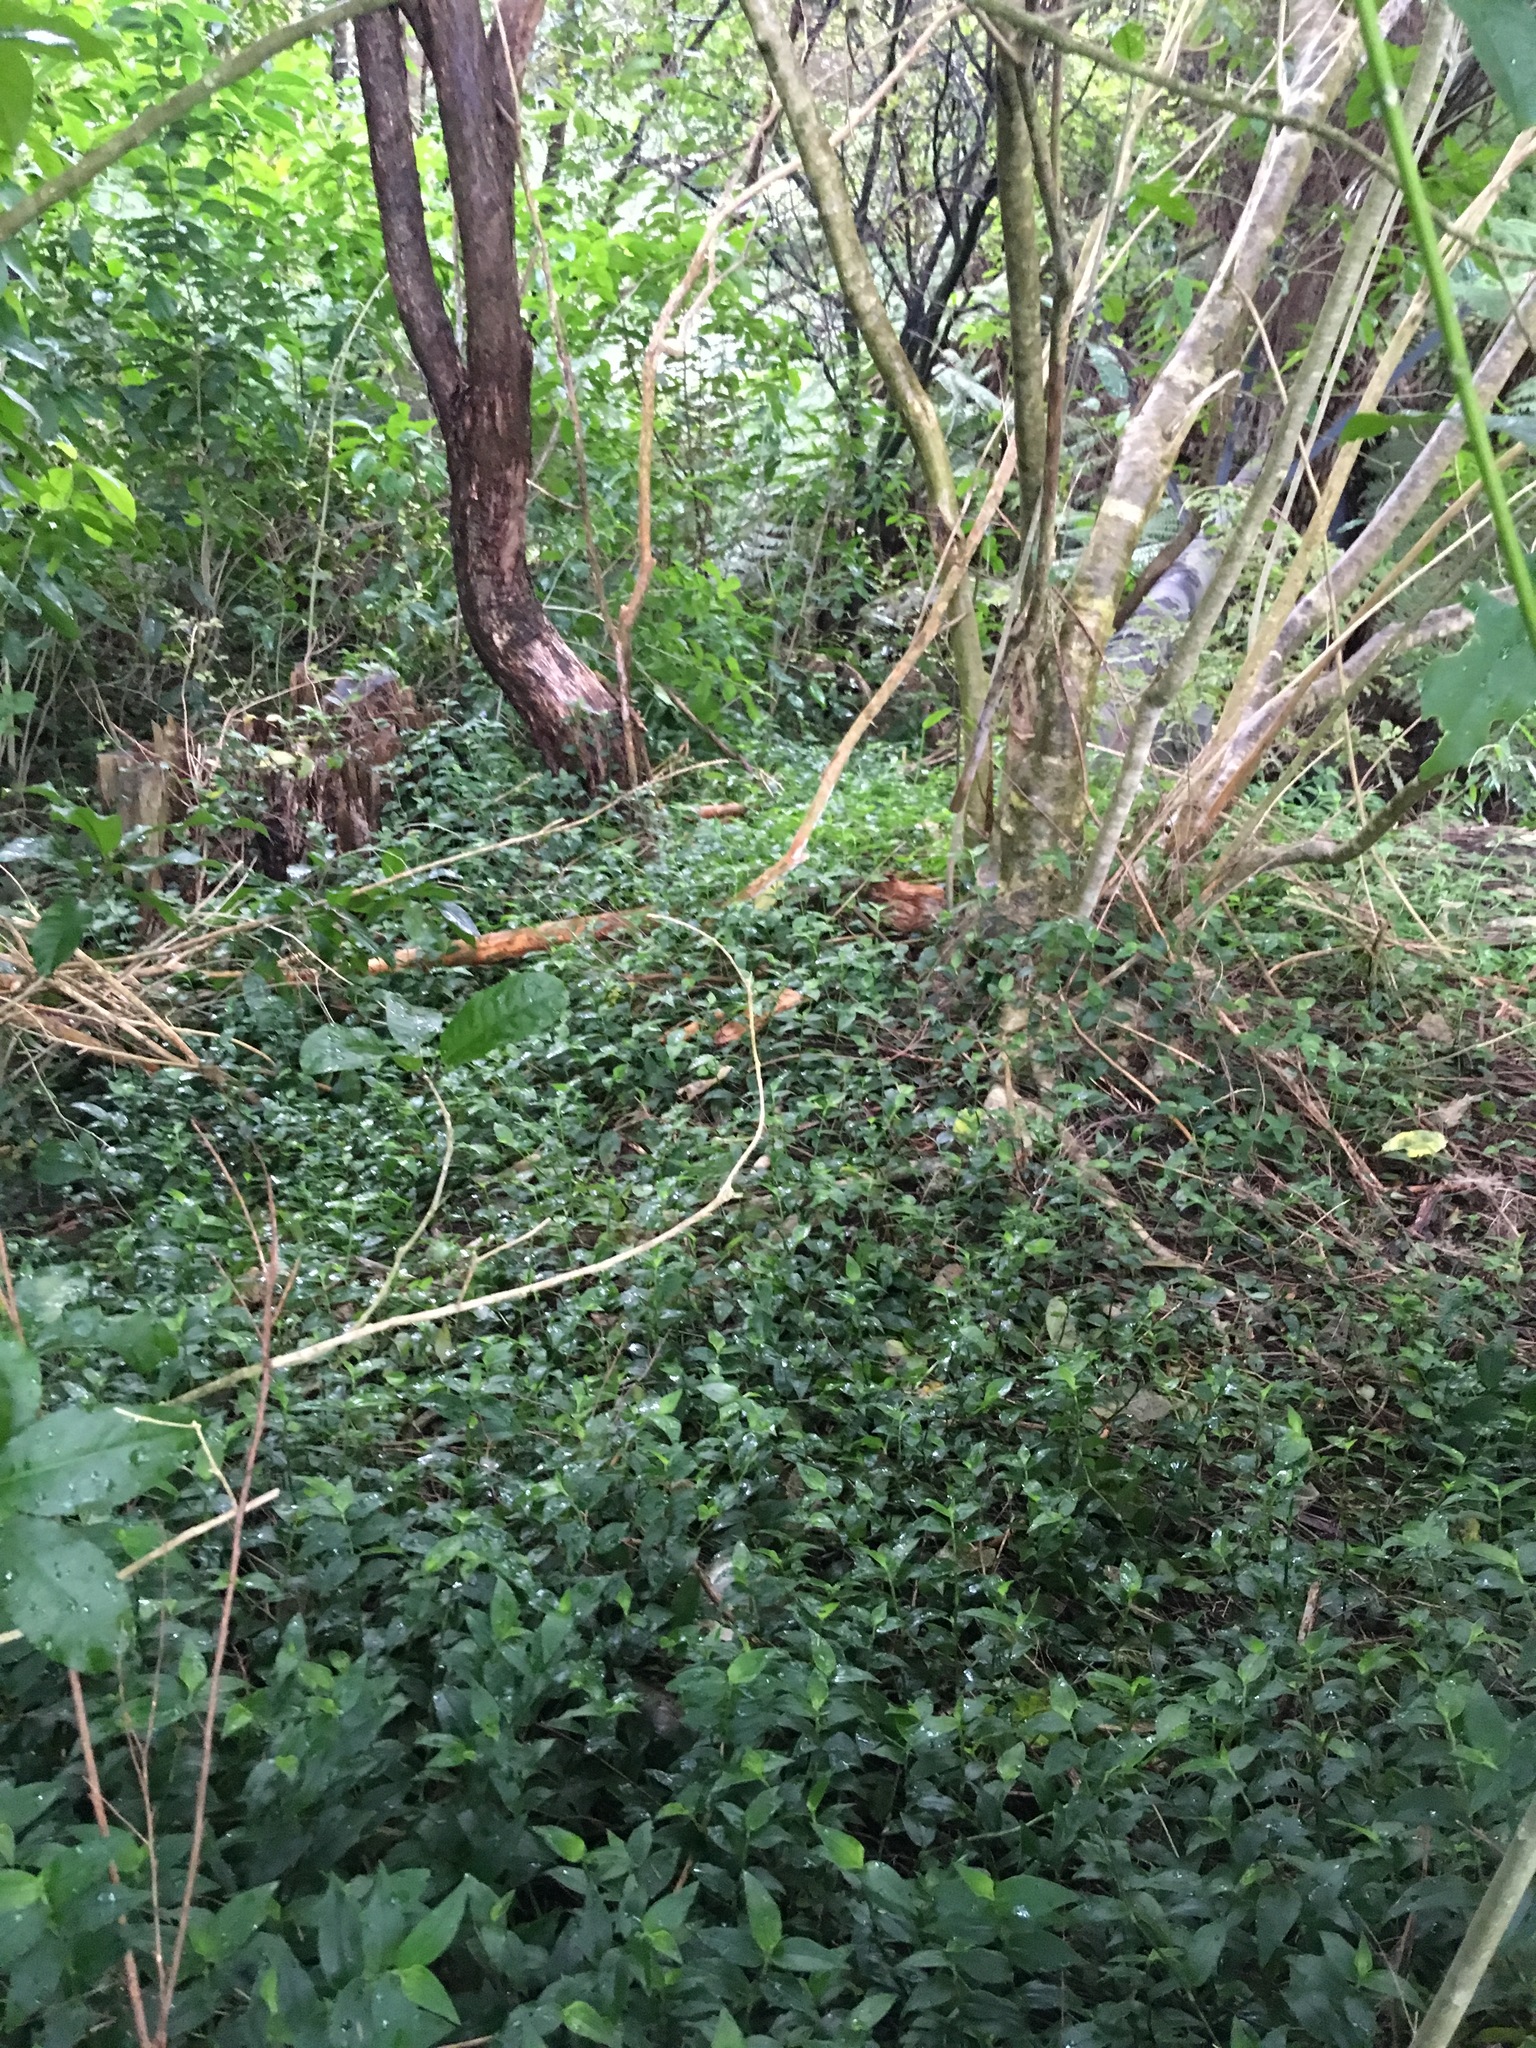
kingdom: Plantae
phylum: Tracheophyta
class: Liliopsida
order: Commelinales
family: Commelinaceae
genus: Tradescantia
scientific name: Tradescantia fluminensis
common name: Wandering-jew
